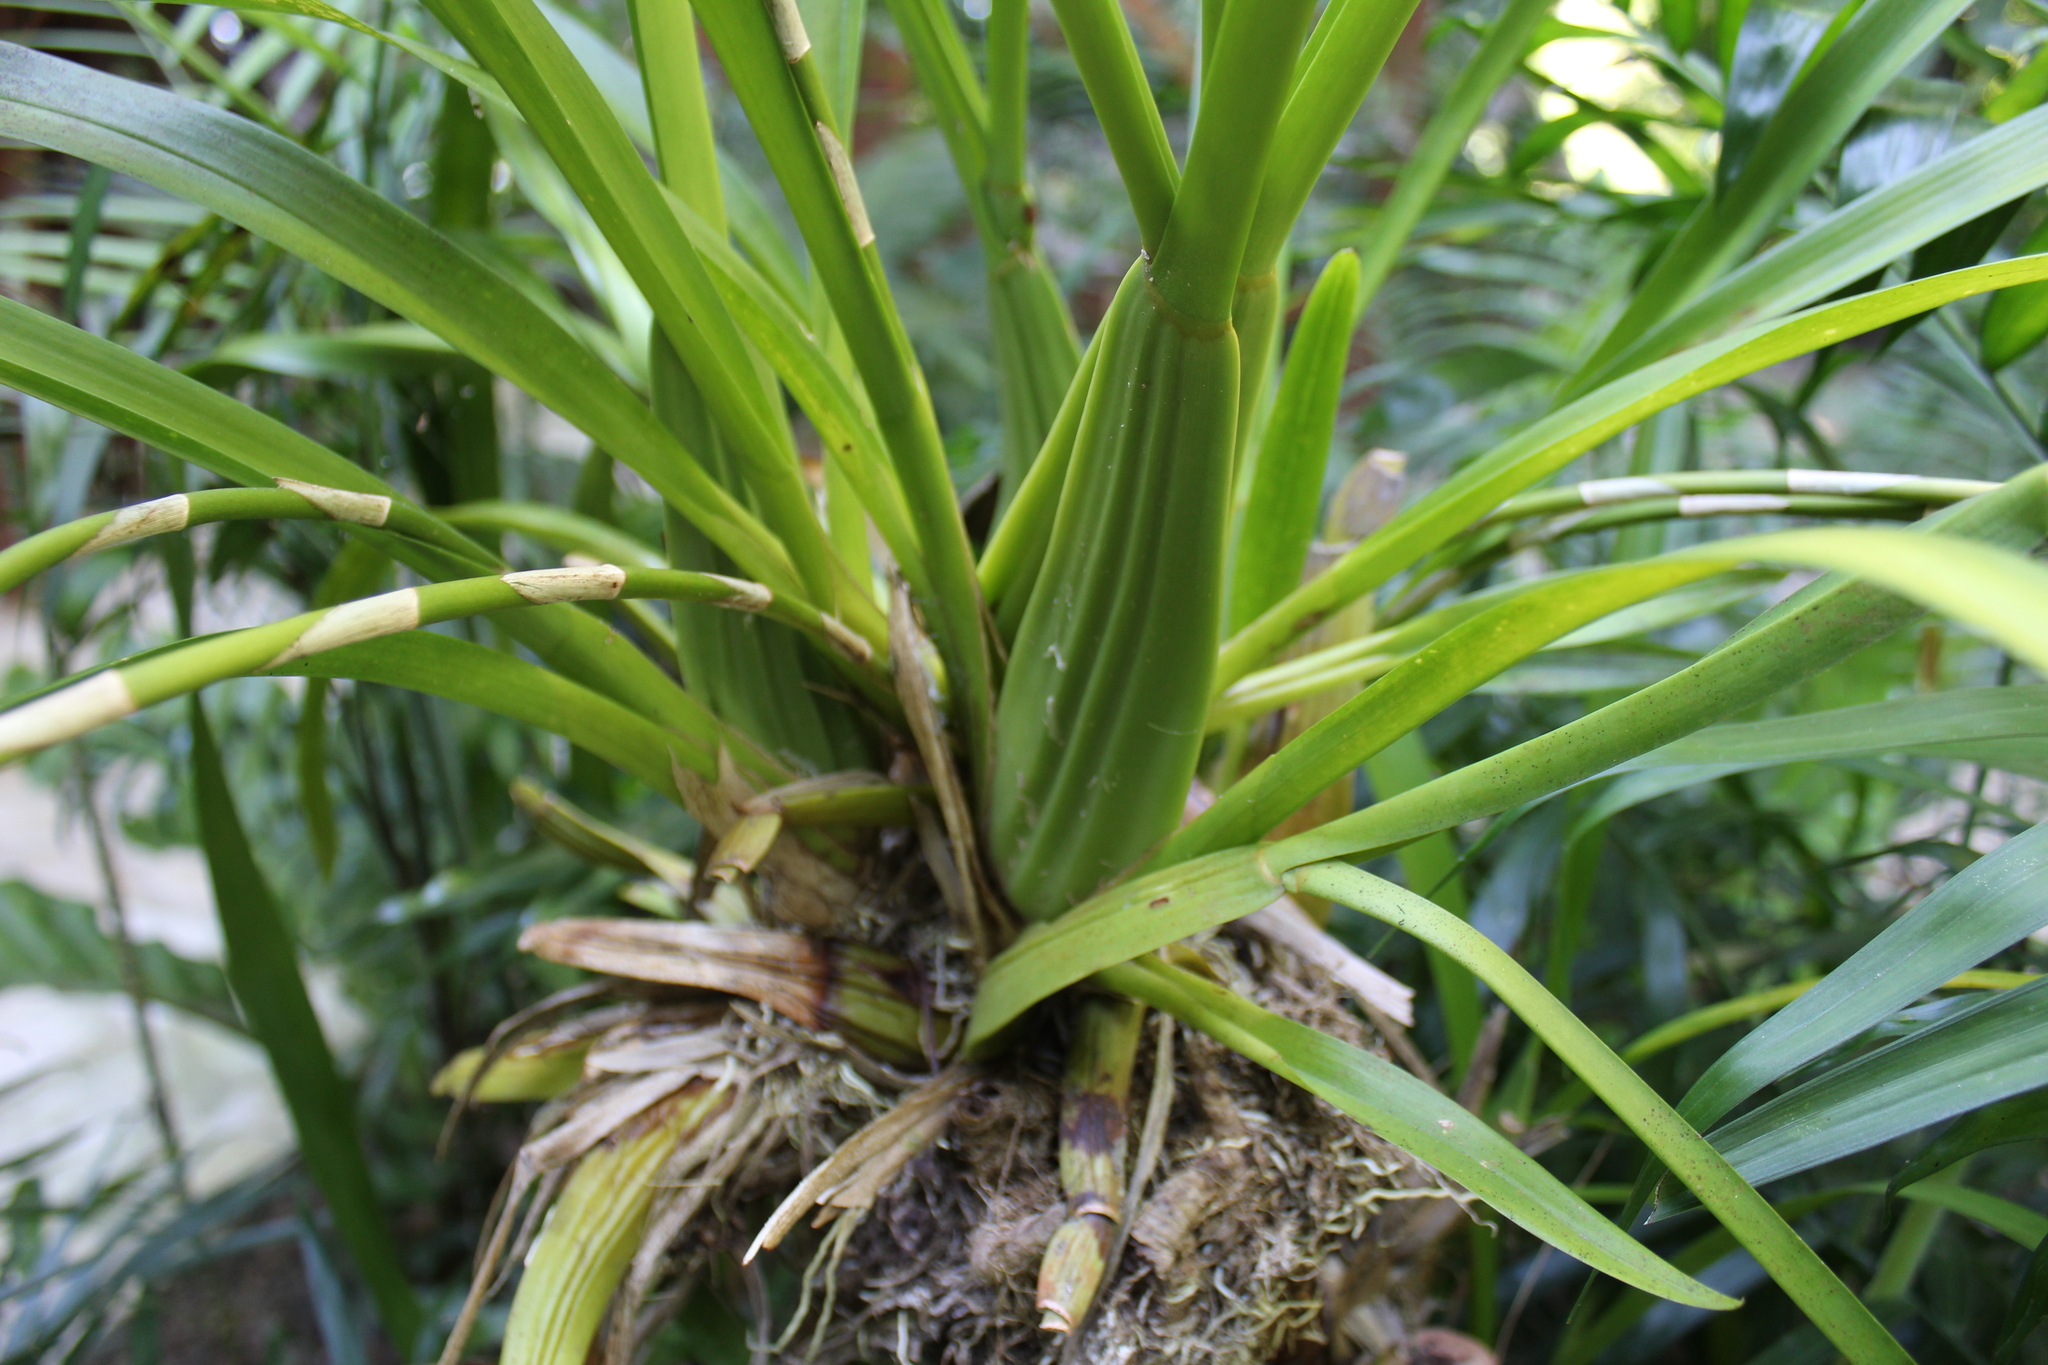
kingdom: Plantae
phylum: Tracheophyta
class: Liliopsida
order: Asparagales
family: Orchidaceae
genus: Oncidium
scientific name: Oncidium sphacelatum
